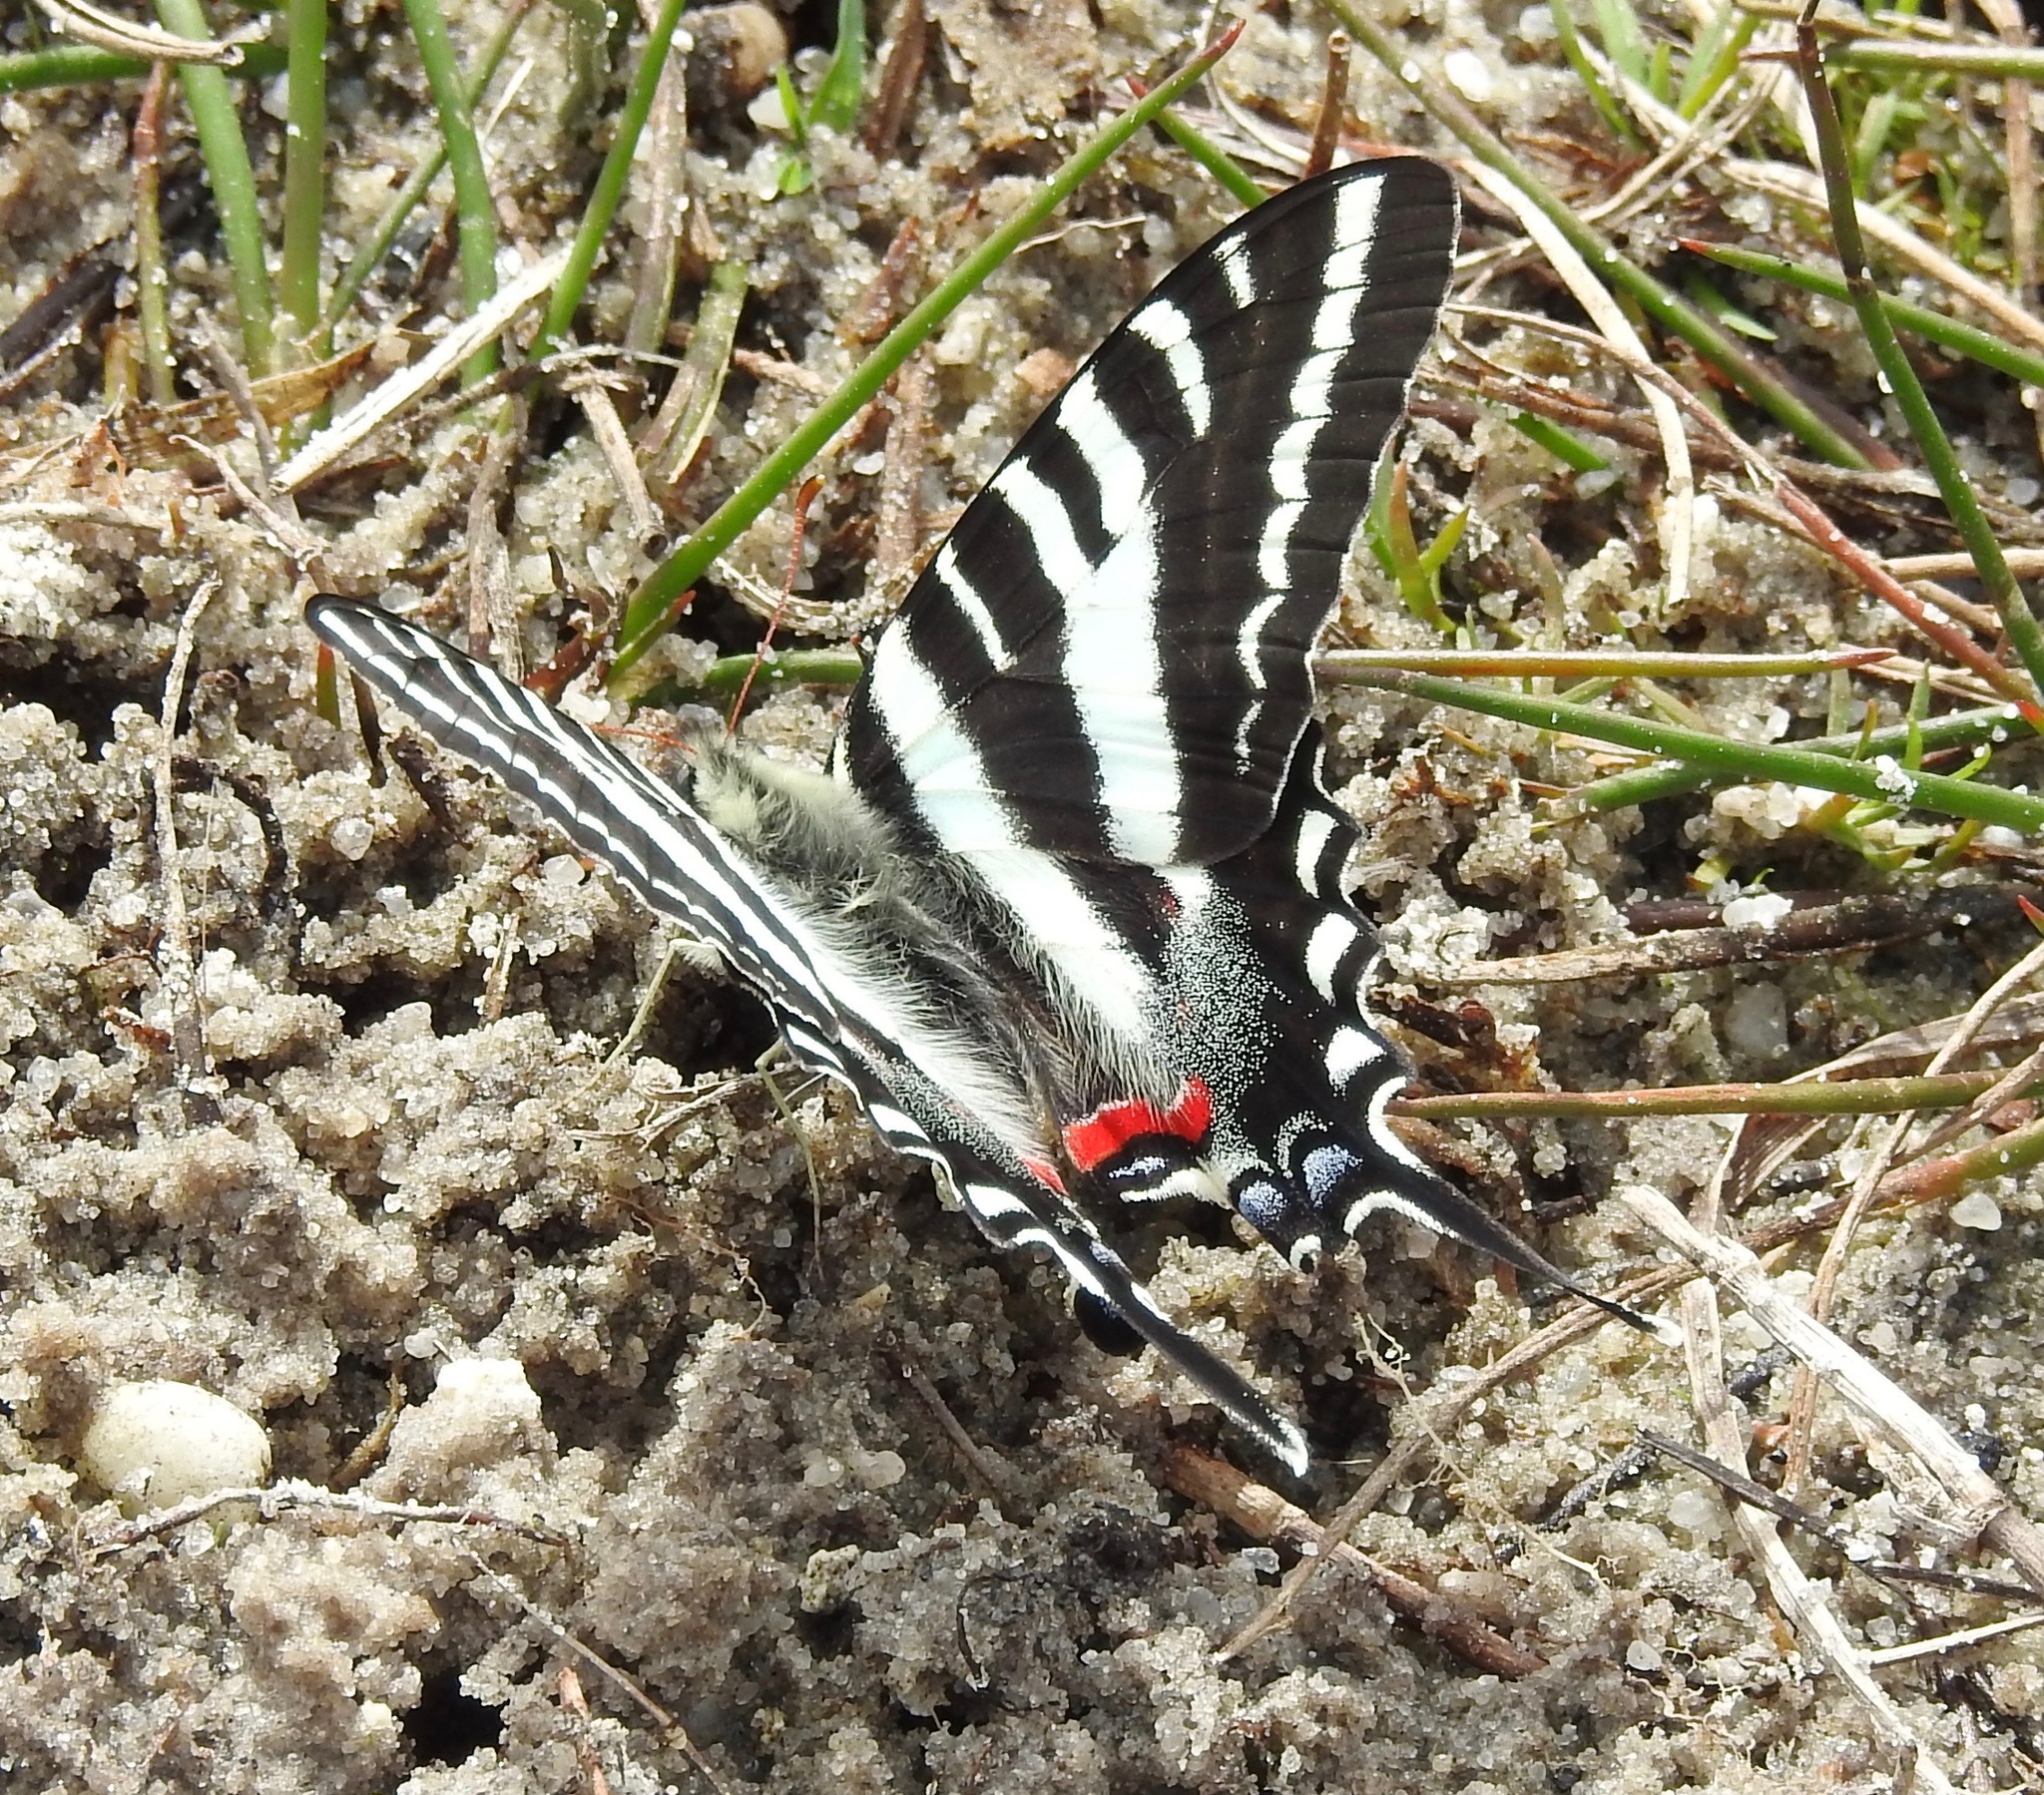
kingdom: Animalia
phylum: Arthropoda
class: Insecta
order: Lepidoptera
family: Papilionidae
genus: Protographium
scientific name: Protographium marcellus
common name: Zebra swallowtail
